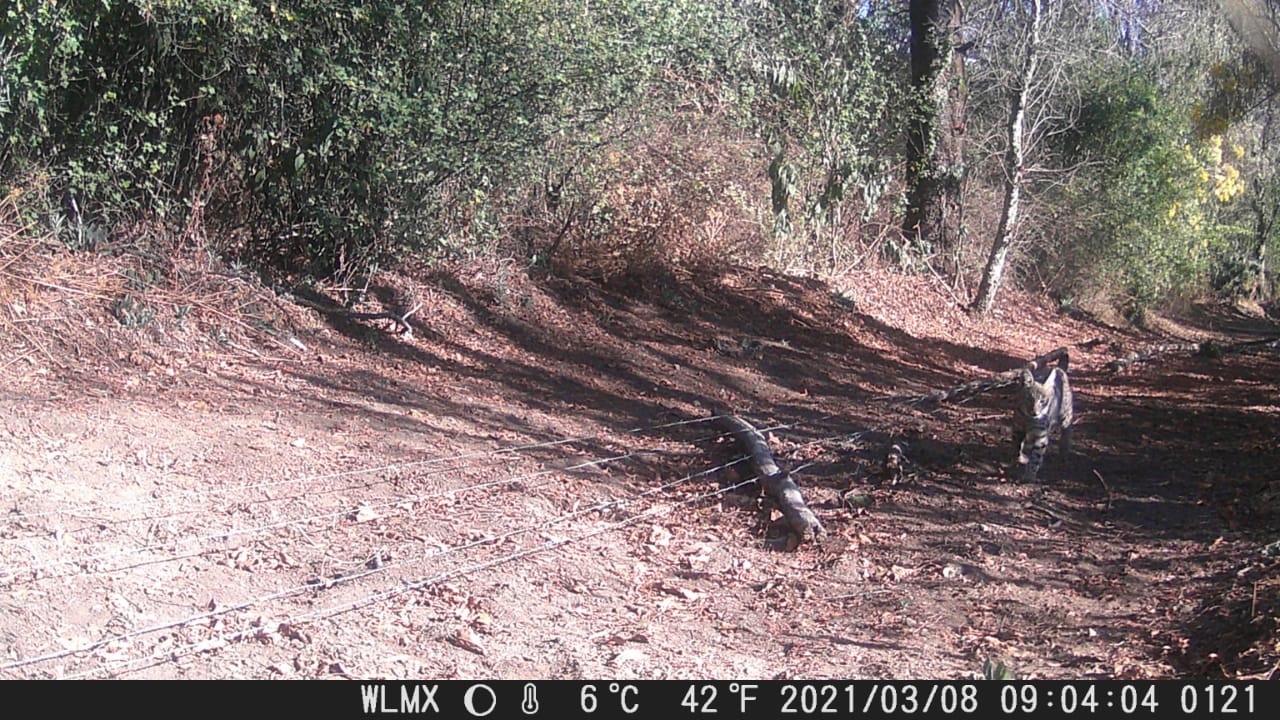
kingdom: Animalia
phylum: Chordata
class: Mammalia
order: Carnivora
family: Felidae
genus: Lynx
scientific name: Lynx rufus
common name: Bobcat
